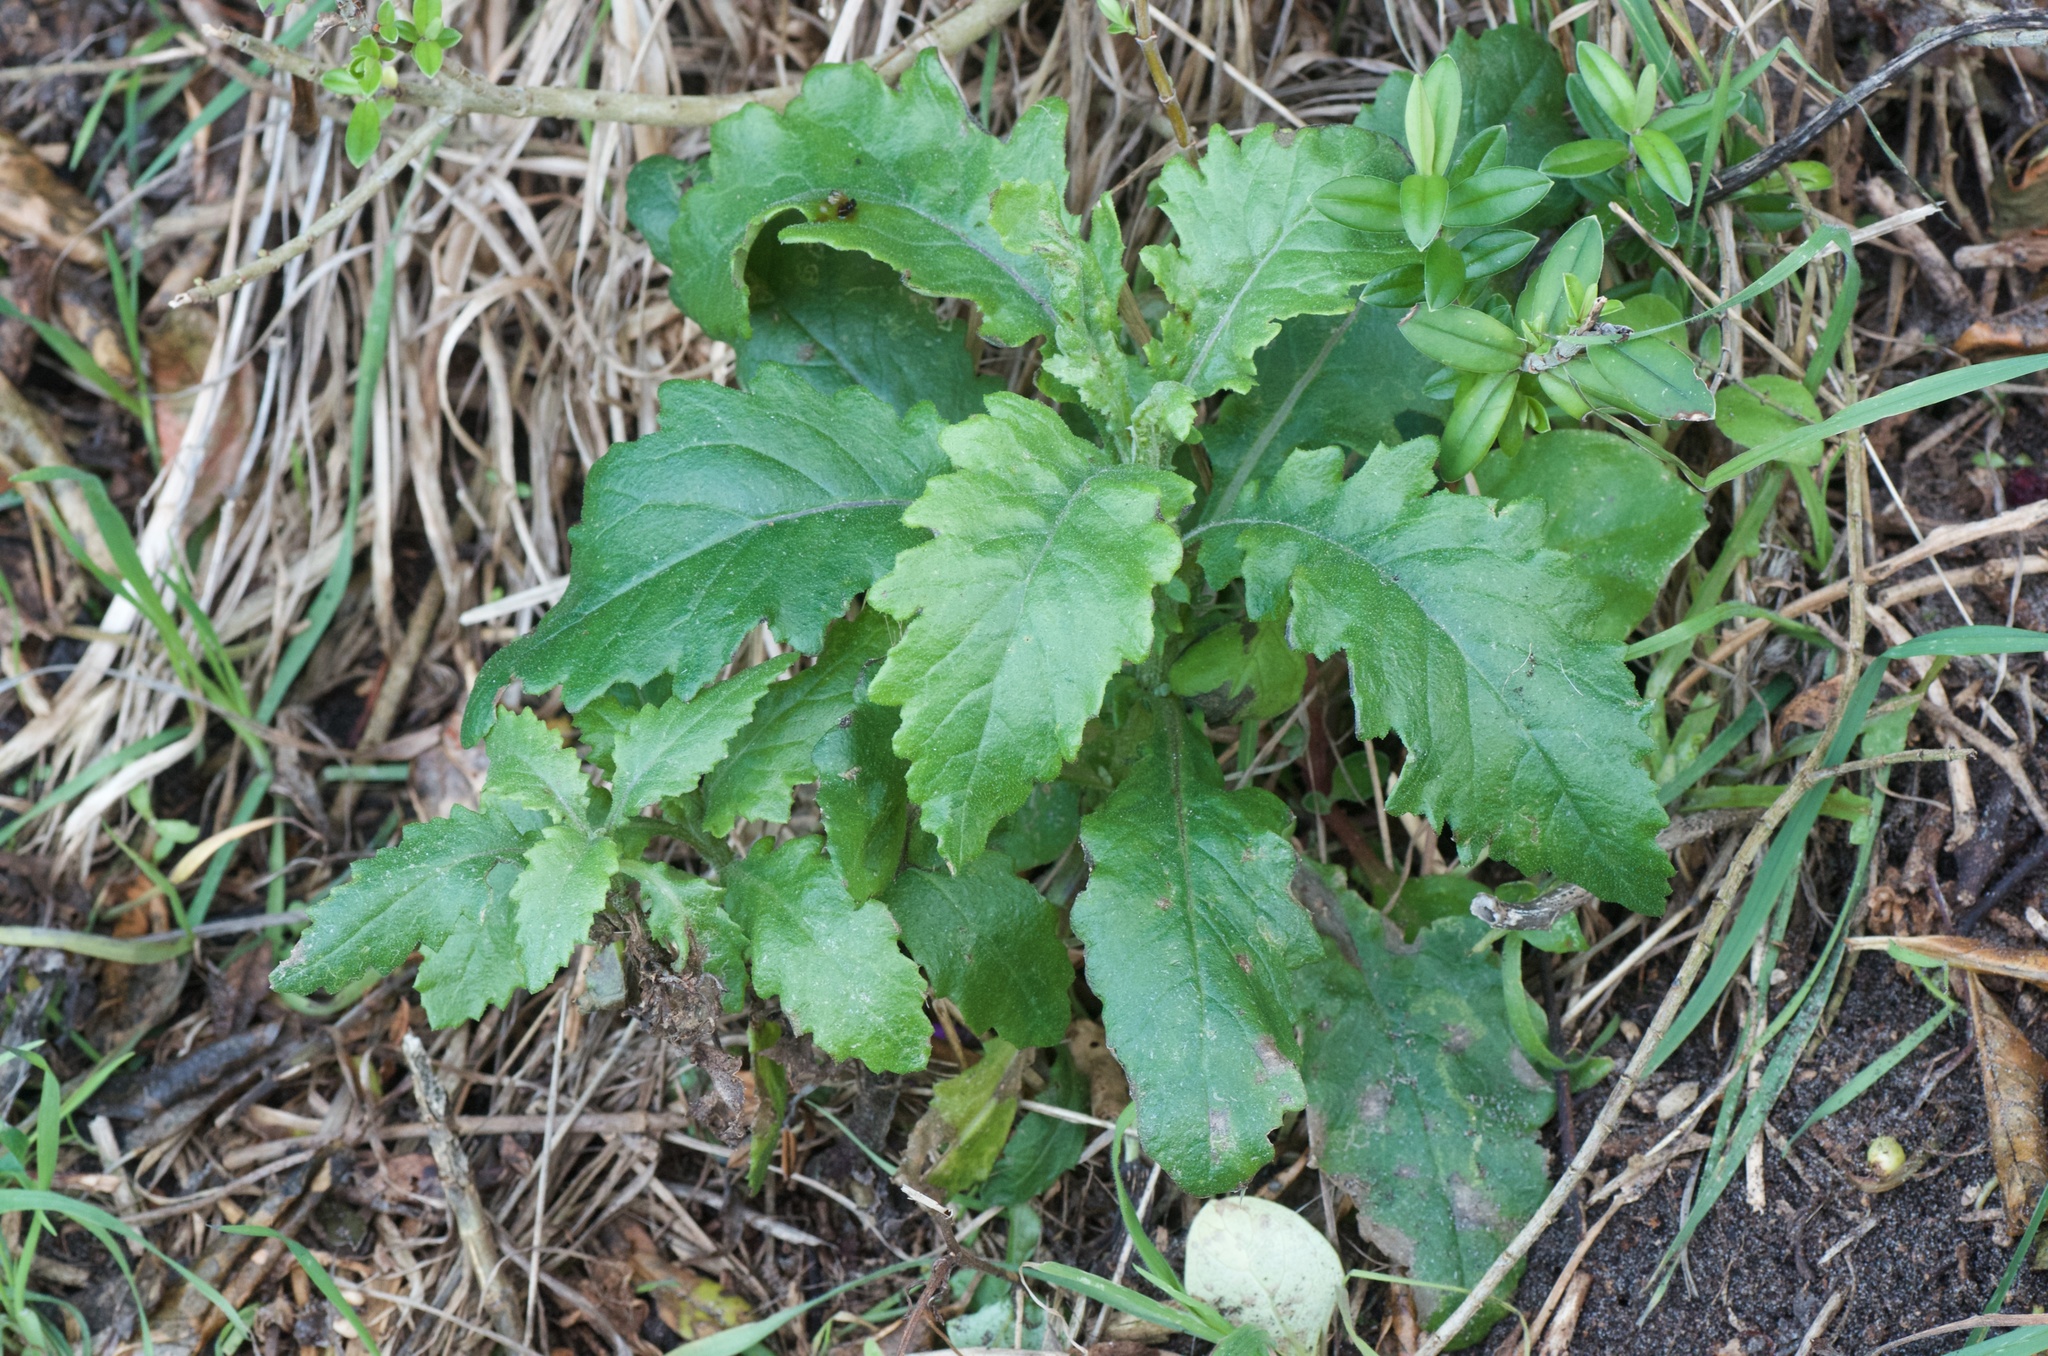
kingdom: Plantae
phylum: Tracheophyta
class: Magnoliopsida
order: Asterales
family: Asteraceae
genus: Senecio
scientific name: Senecio biserratus
